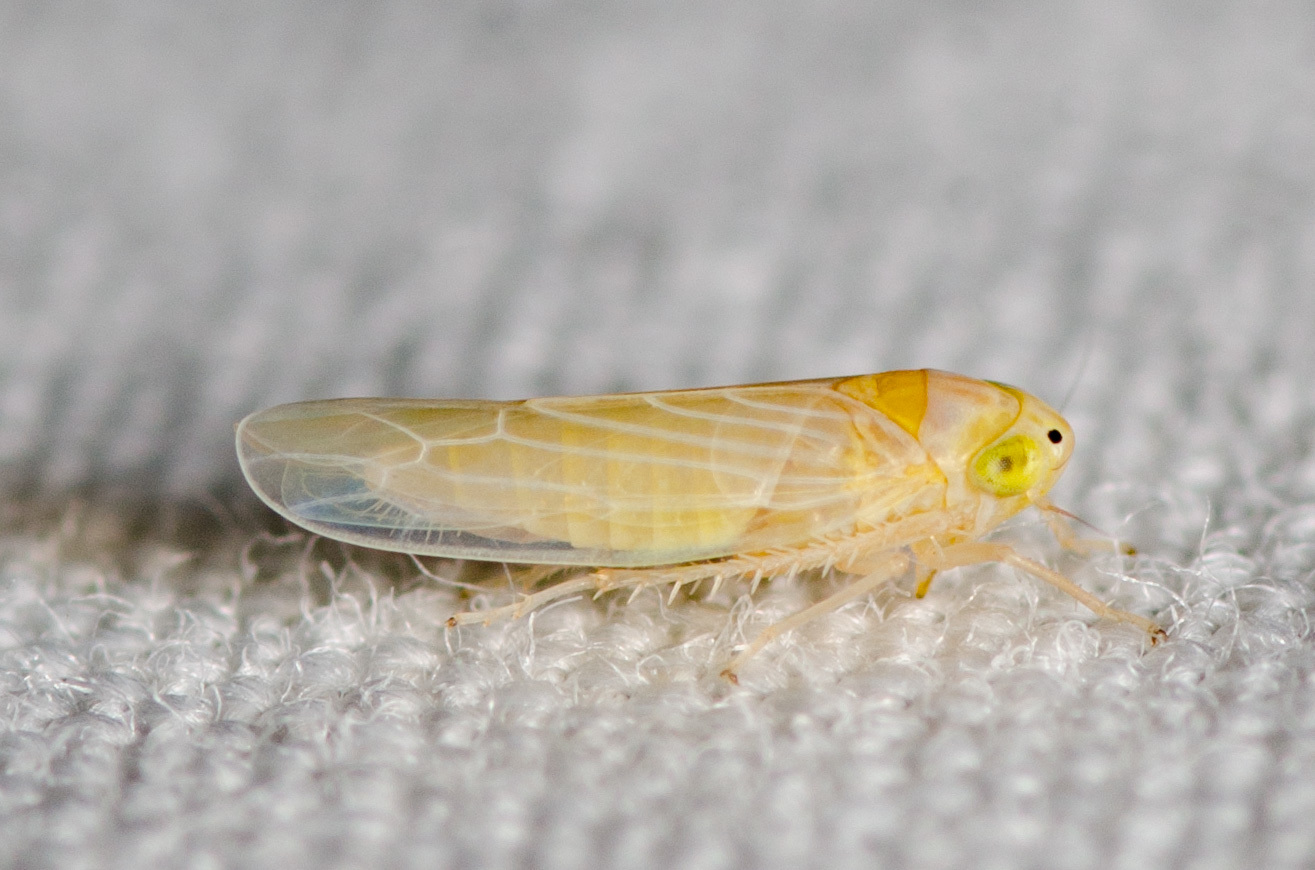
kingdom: Animalia
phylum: Arthropoda
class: Insecta
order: Hemiptera
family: Cicadellidae
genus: Dalbulus
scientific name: Dalbulus maidis
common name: Corn leafhopper
